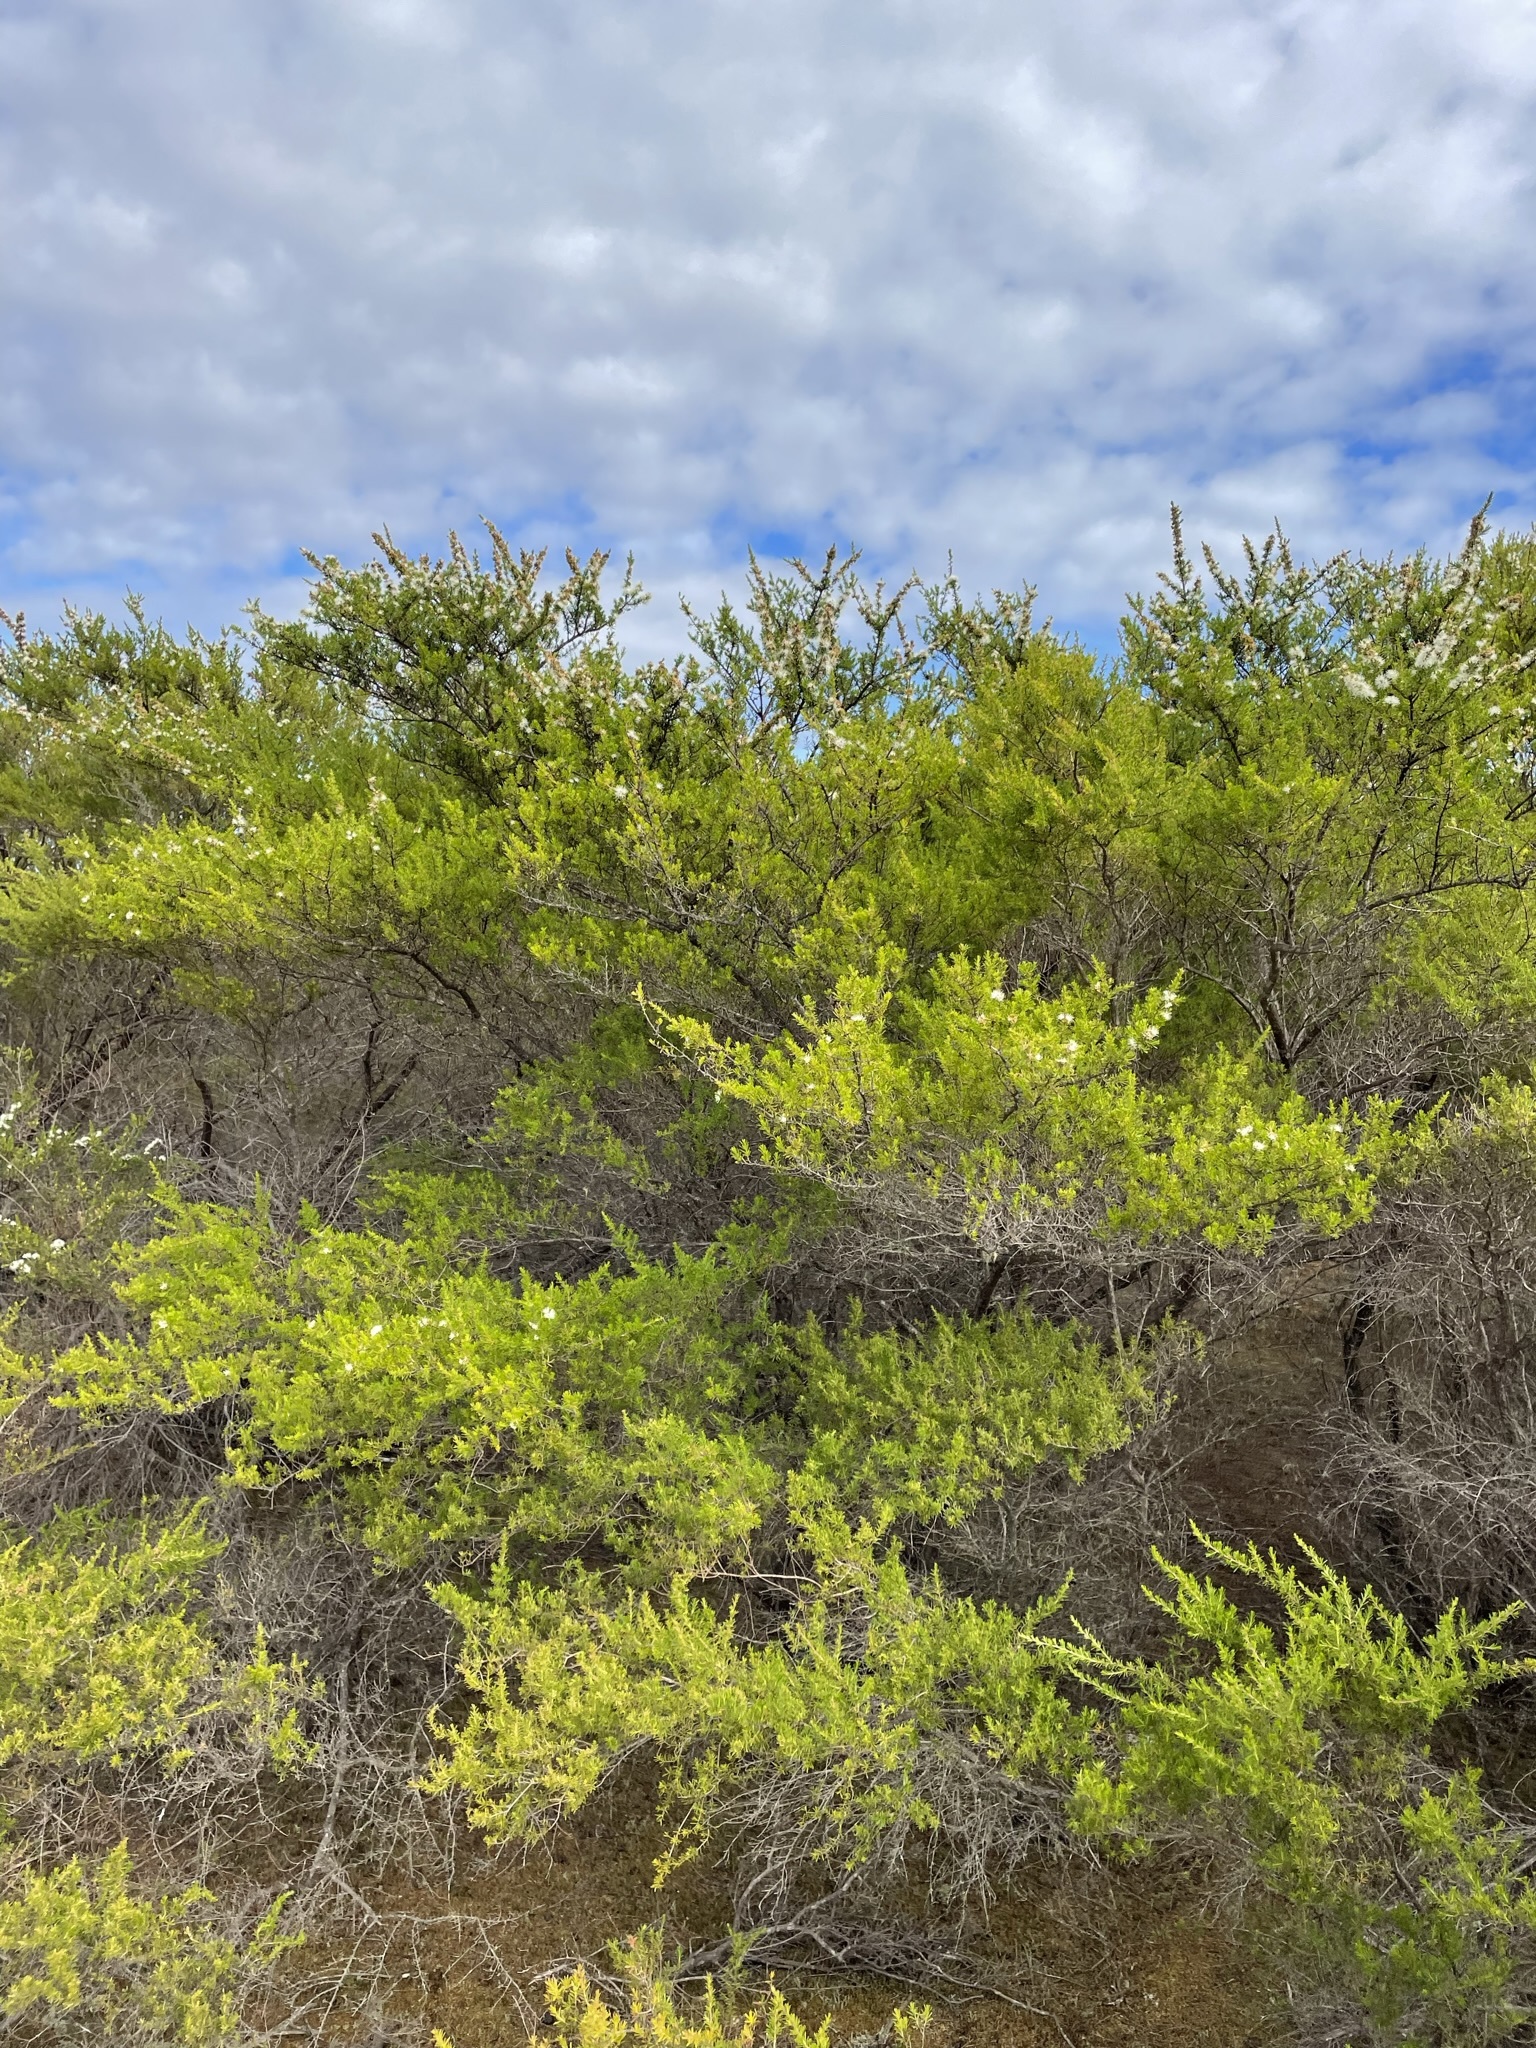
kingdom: Plantae
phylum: Tracheophyta
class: Magnoliopsida
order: Myrtales
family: Myrtaceae
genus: Kunzea
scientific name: Kunzea ambigua
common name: Tickbush
